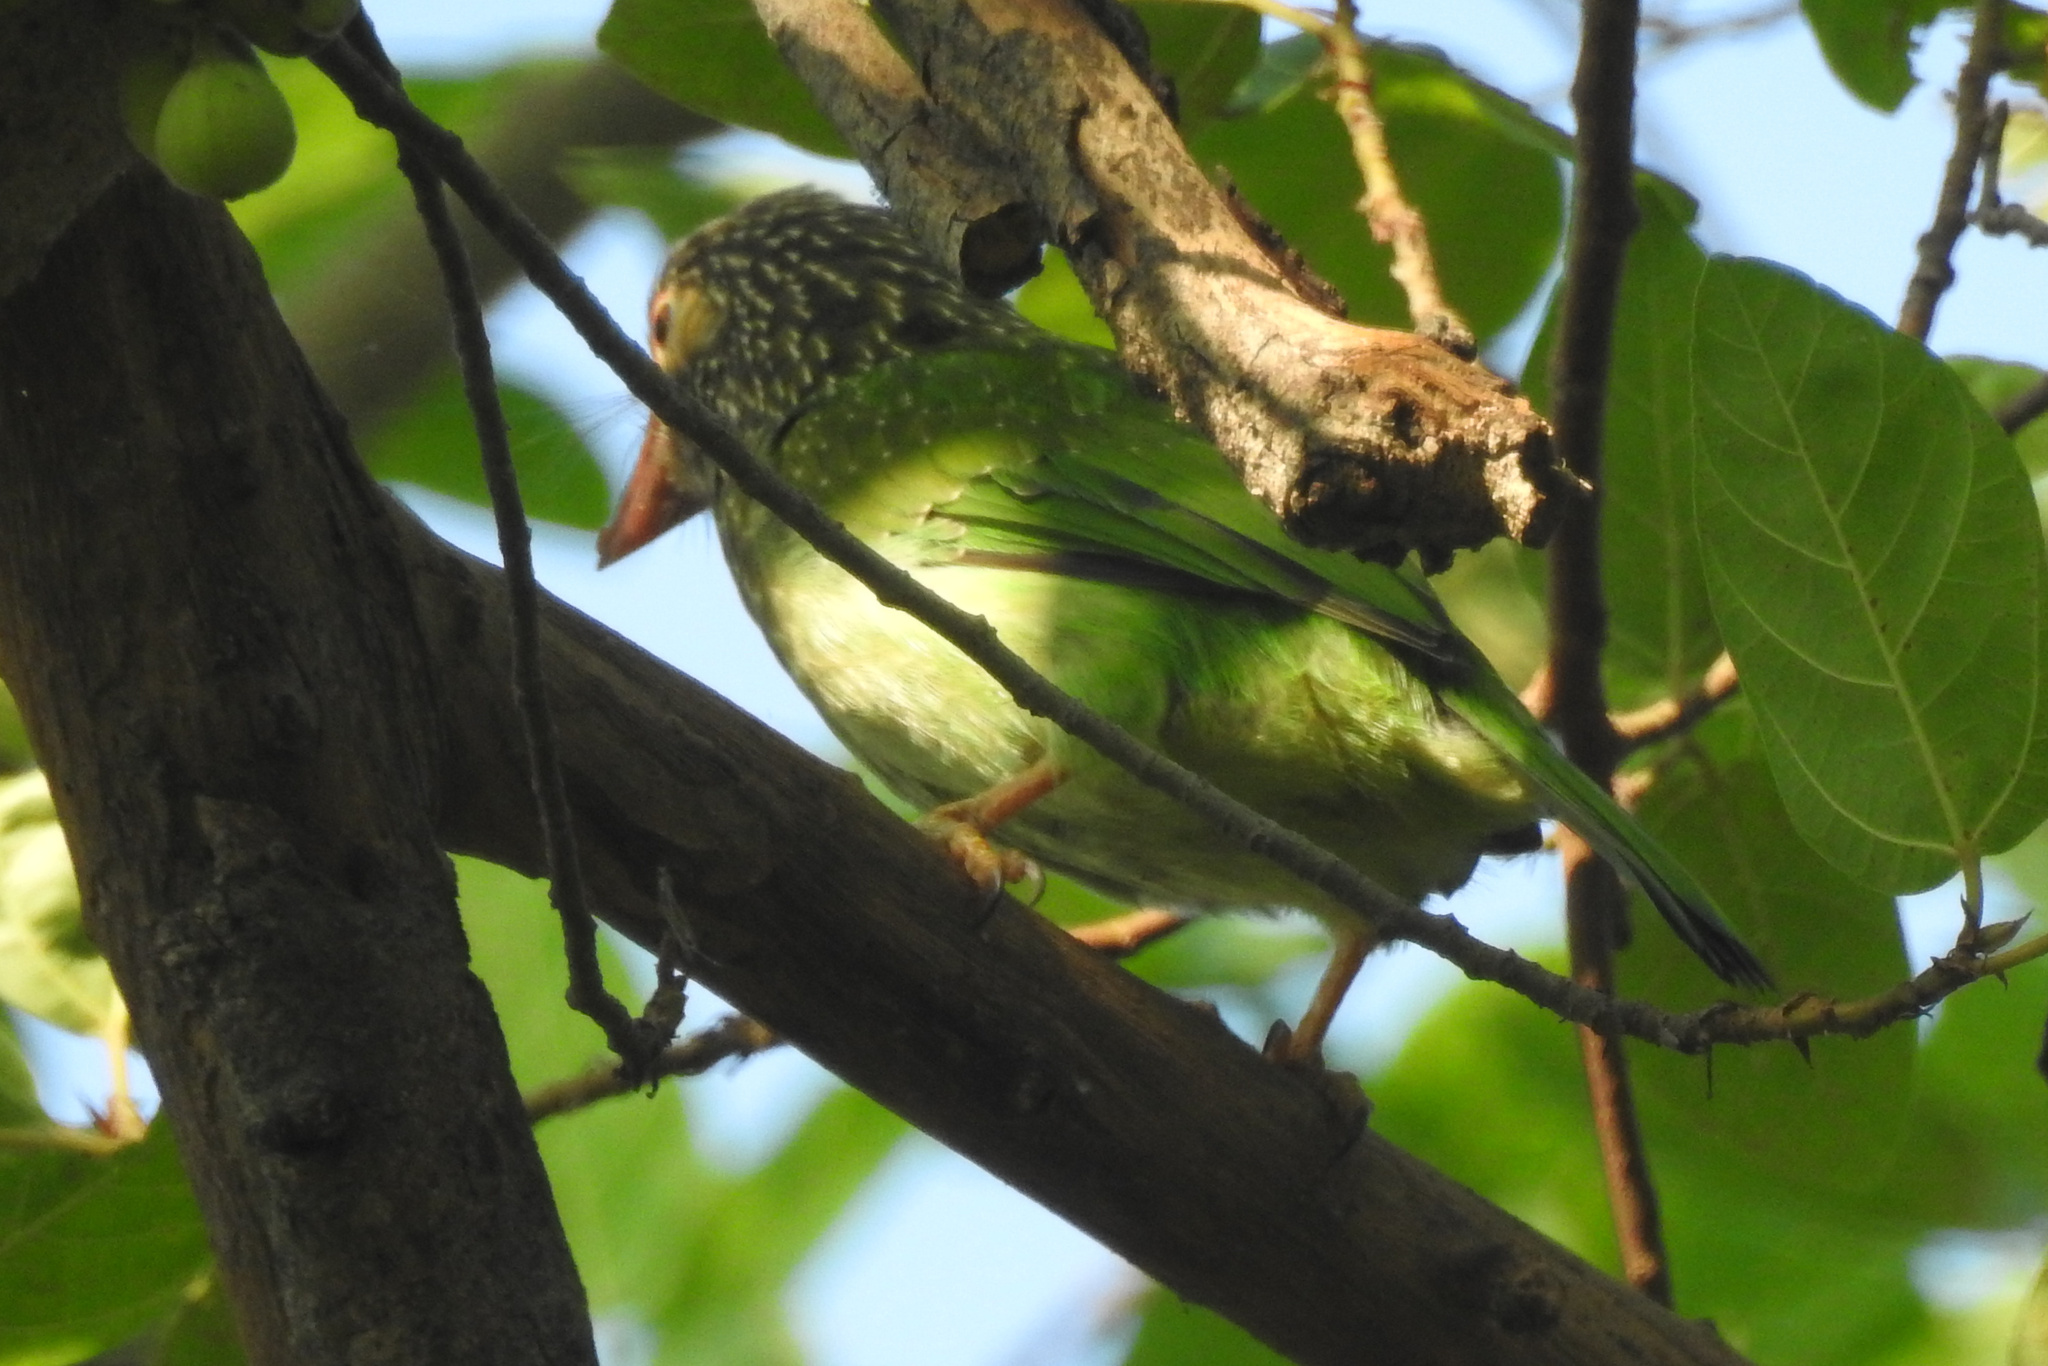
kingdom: Animalia
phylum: Chordata
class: Aves
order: Piciformes
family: Megalaimidae
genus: Psilopogon
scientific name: Psilopogon zeylanicus
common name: Brown-headed barbet
